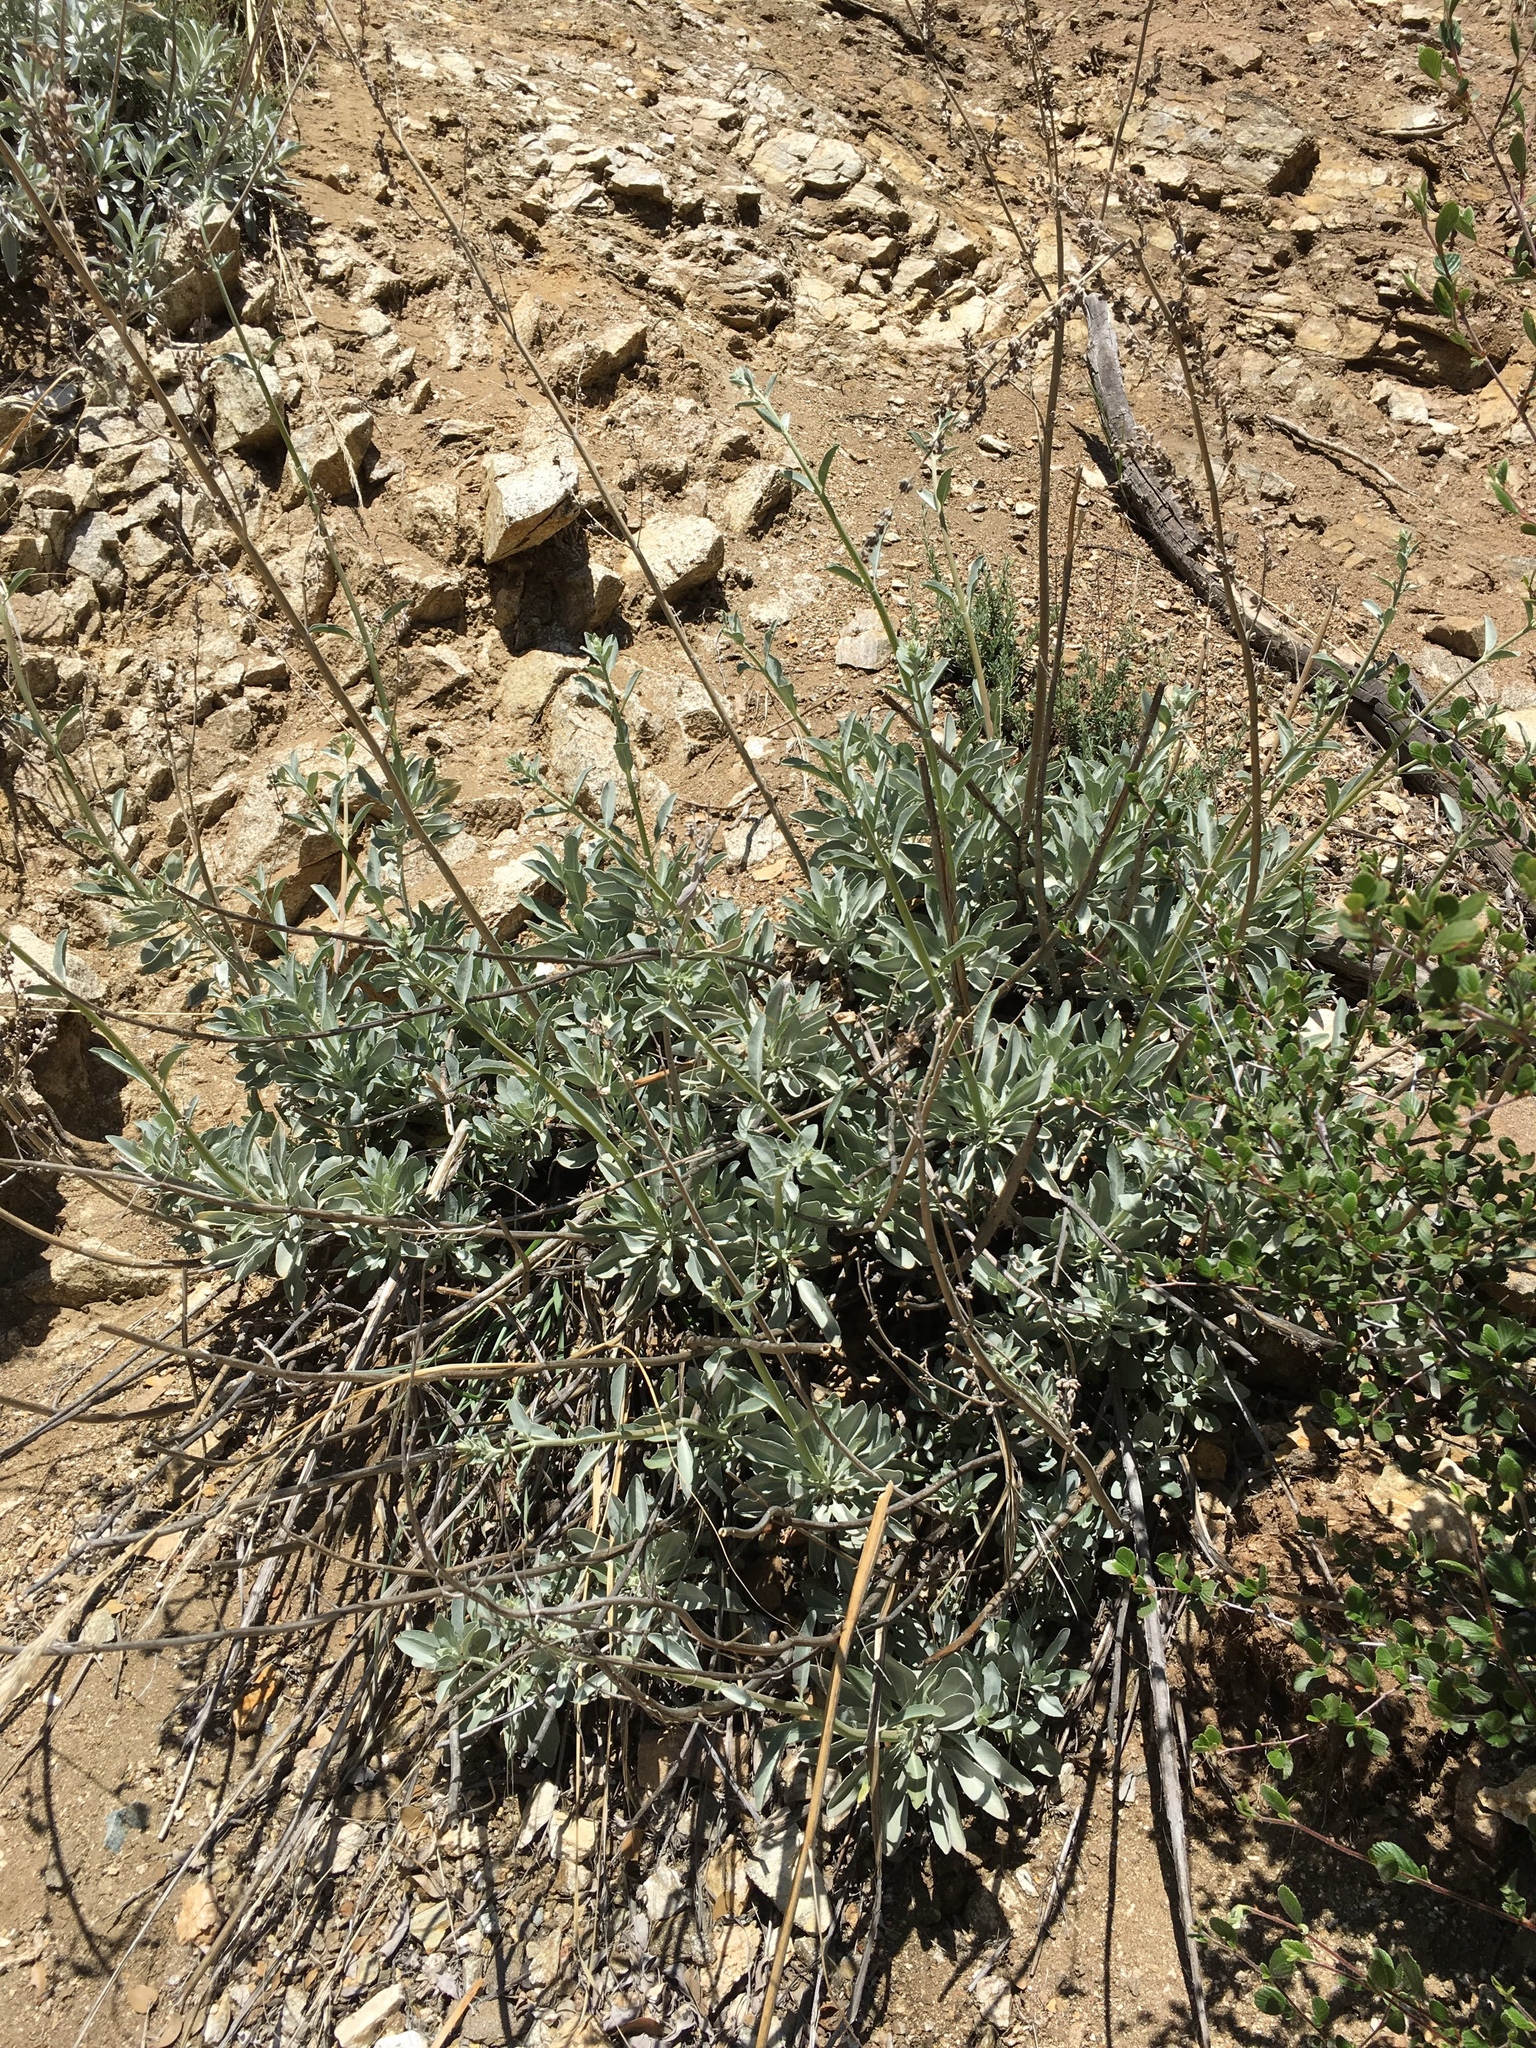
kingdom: Plantae
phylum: Tracheophyta
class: Magnoliopsida
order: Lamiales
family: Lamiaceae
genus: Salvia
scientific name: Salvia apiana
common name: White sage
